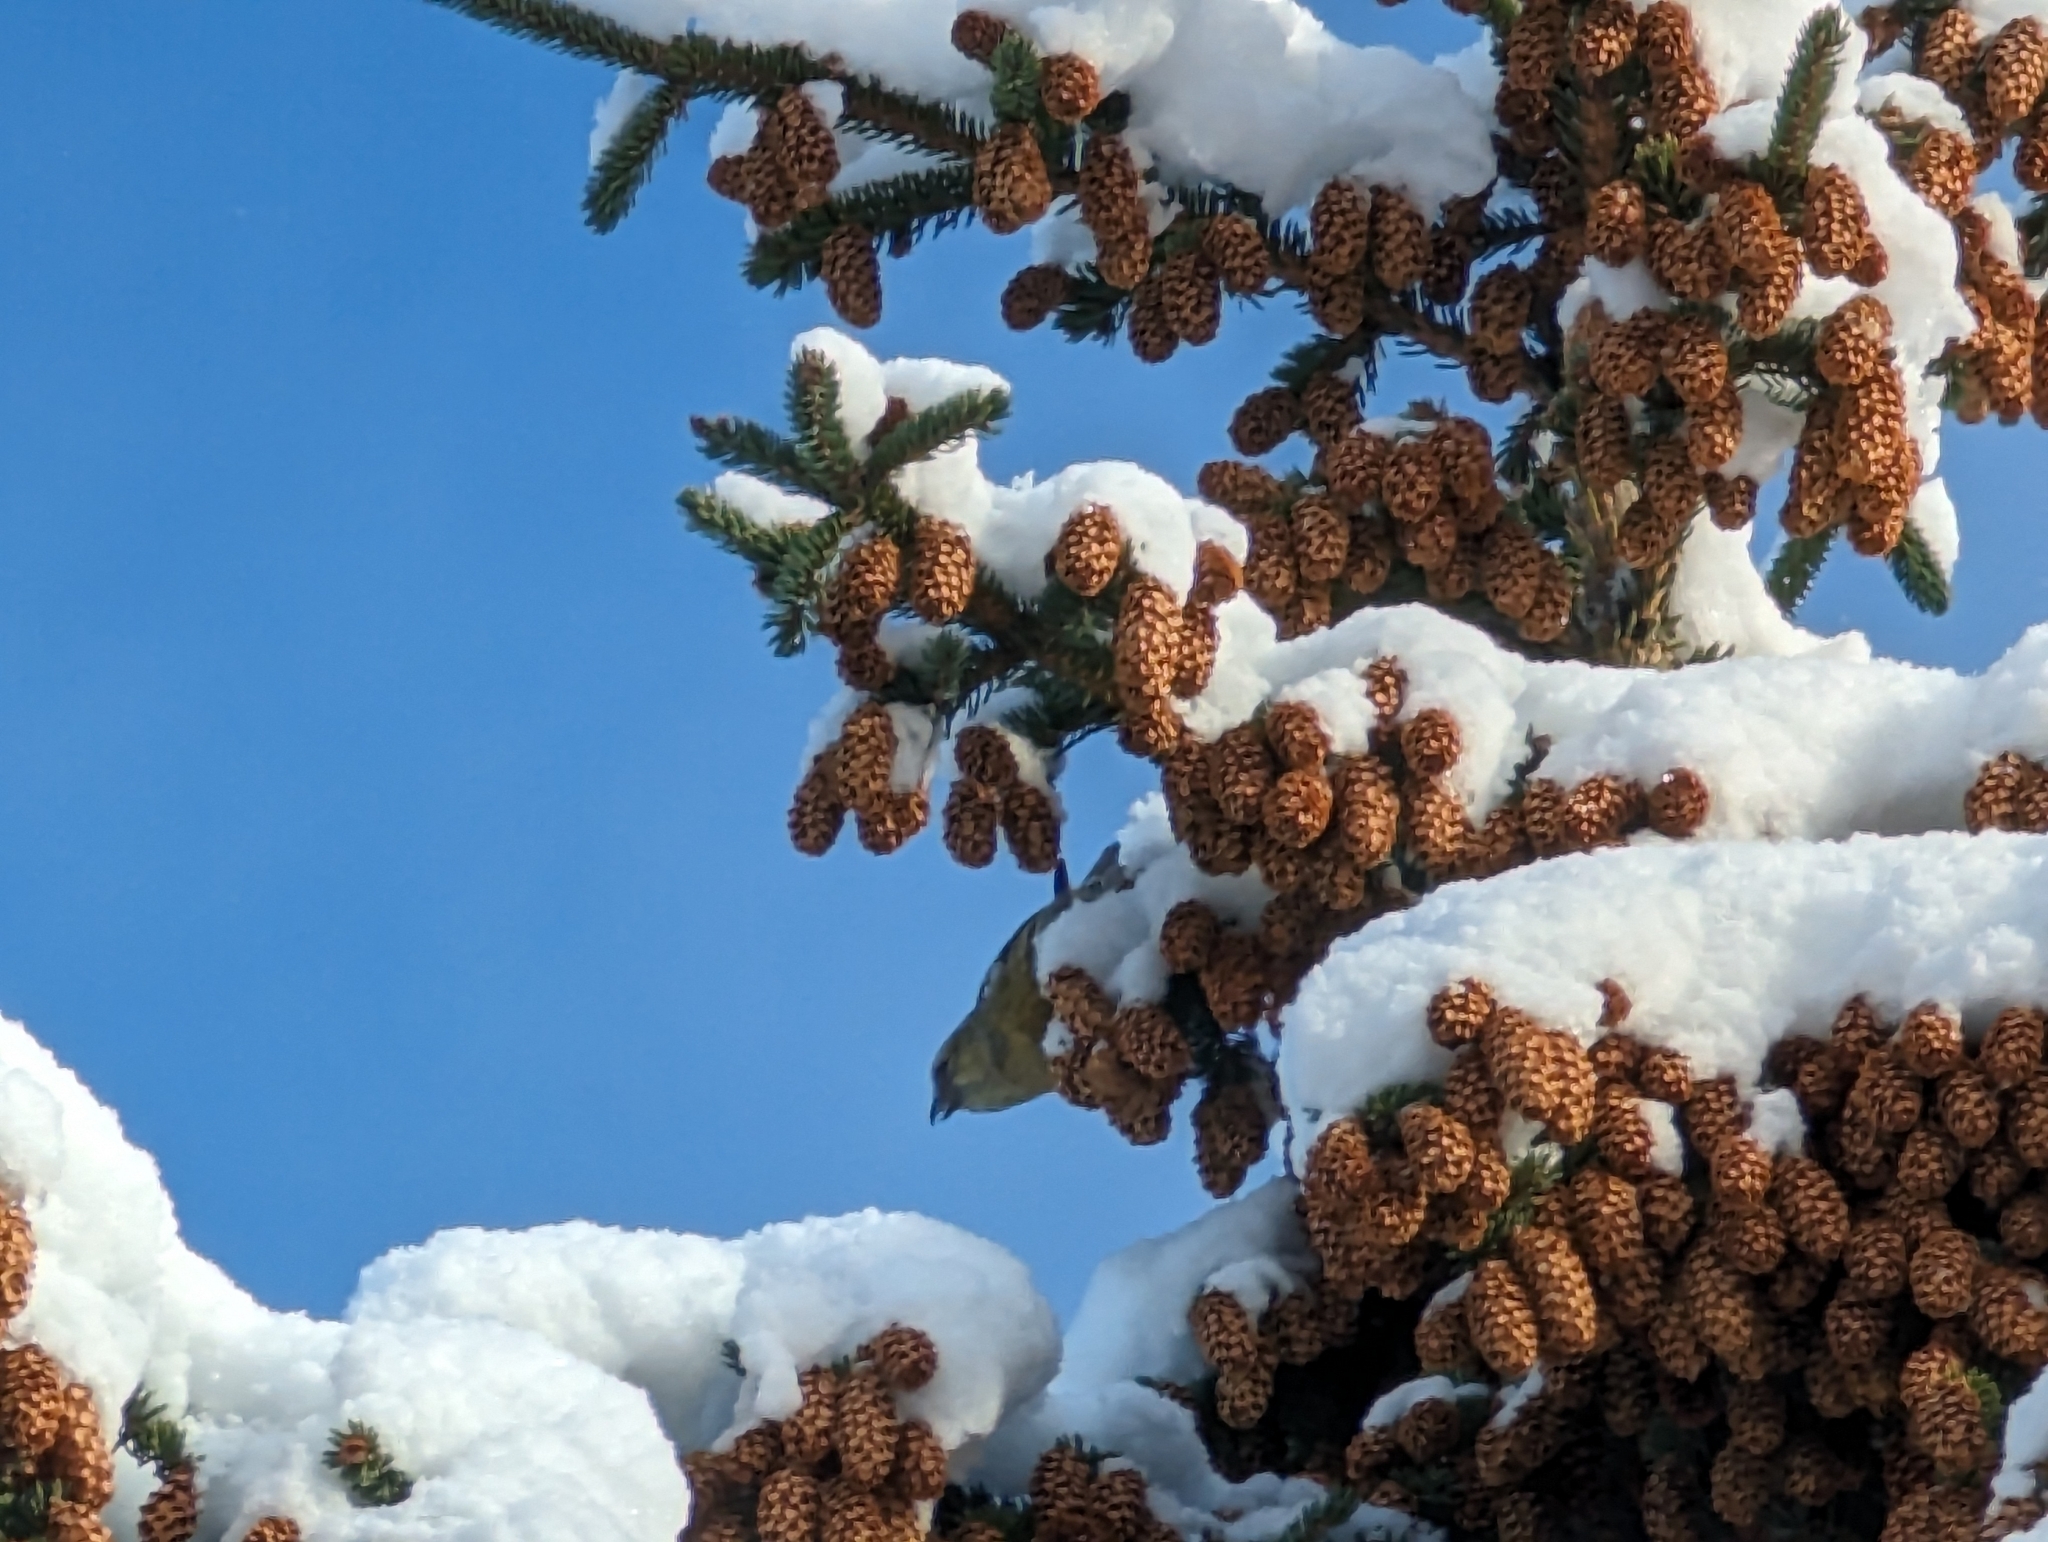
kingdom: Animalia
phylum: Chordata
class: Aves
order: Passeriformes
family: Fringillidae
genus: Loxia
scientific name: Loxia leucoptera
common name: Two-barred crossbill
